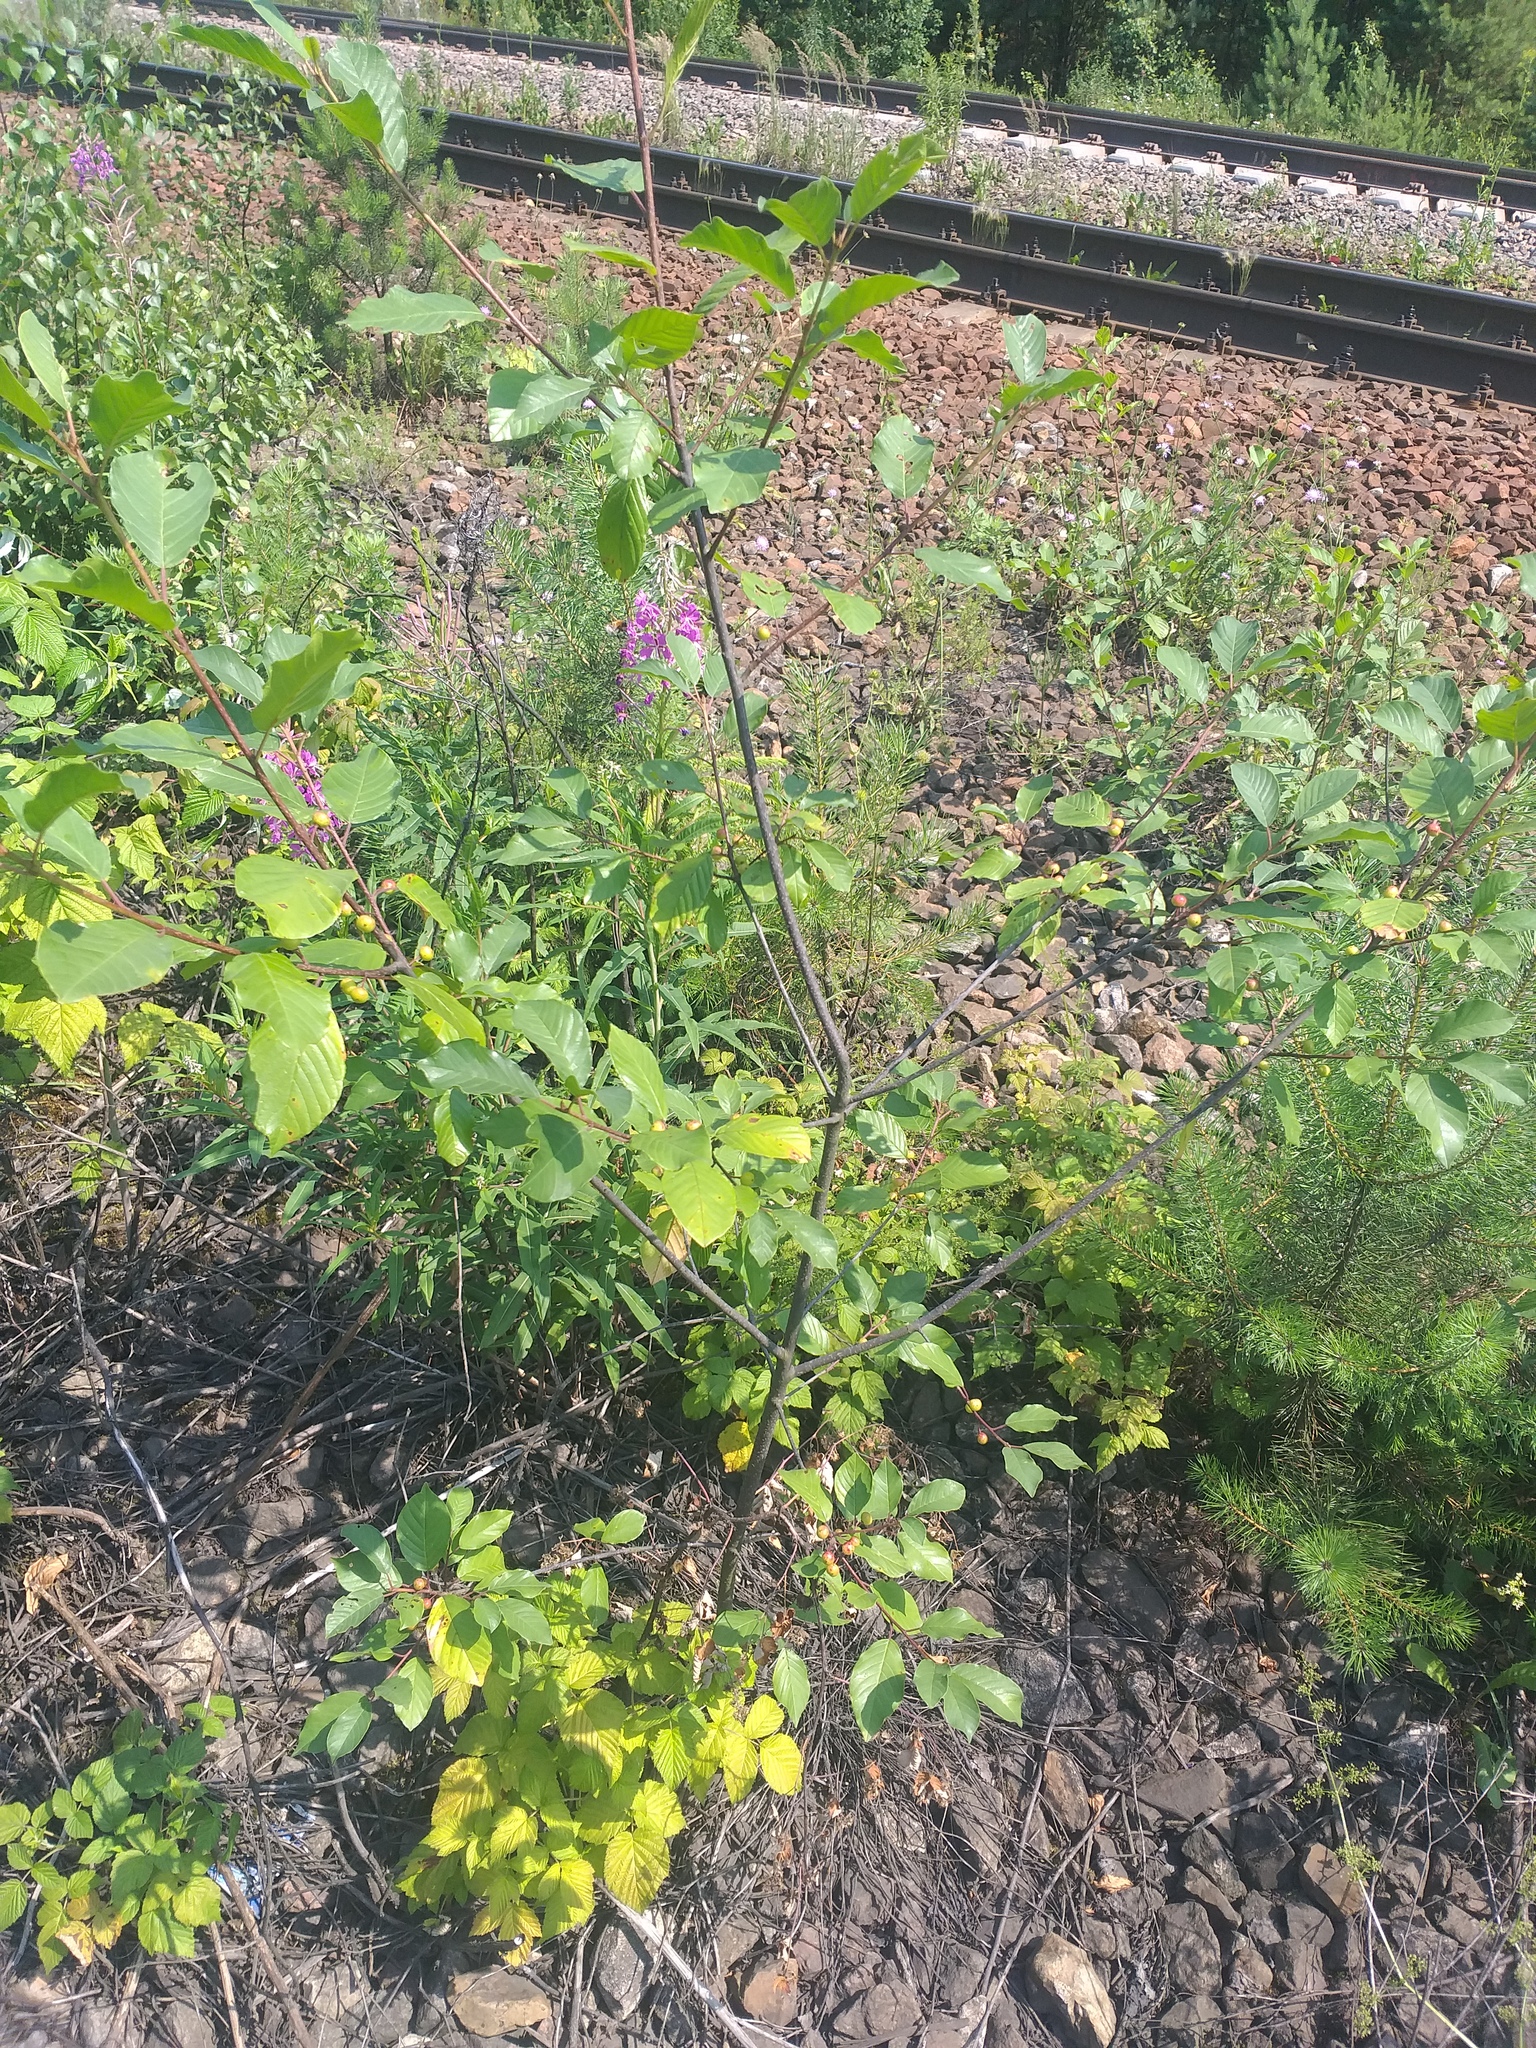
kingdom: Plantae
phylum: Tracheophyta
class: Magnoliopsida
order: Rosales
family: Rhamnaceae
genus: Frangula
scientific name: Frangula alnus
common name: Alder buckthorn
